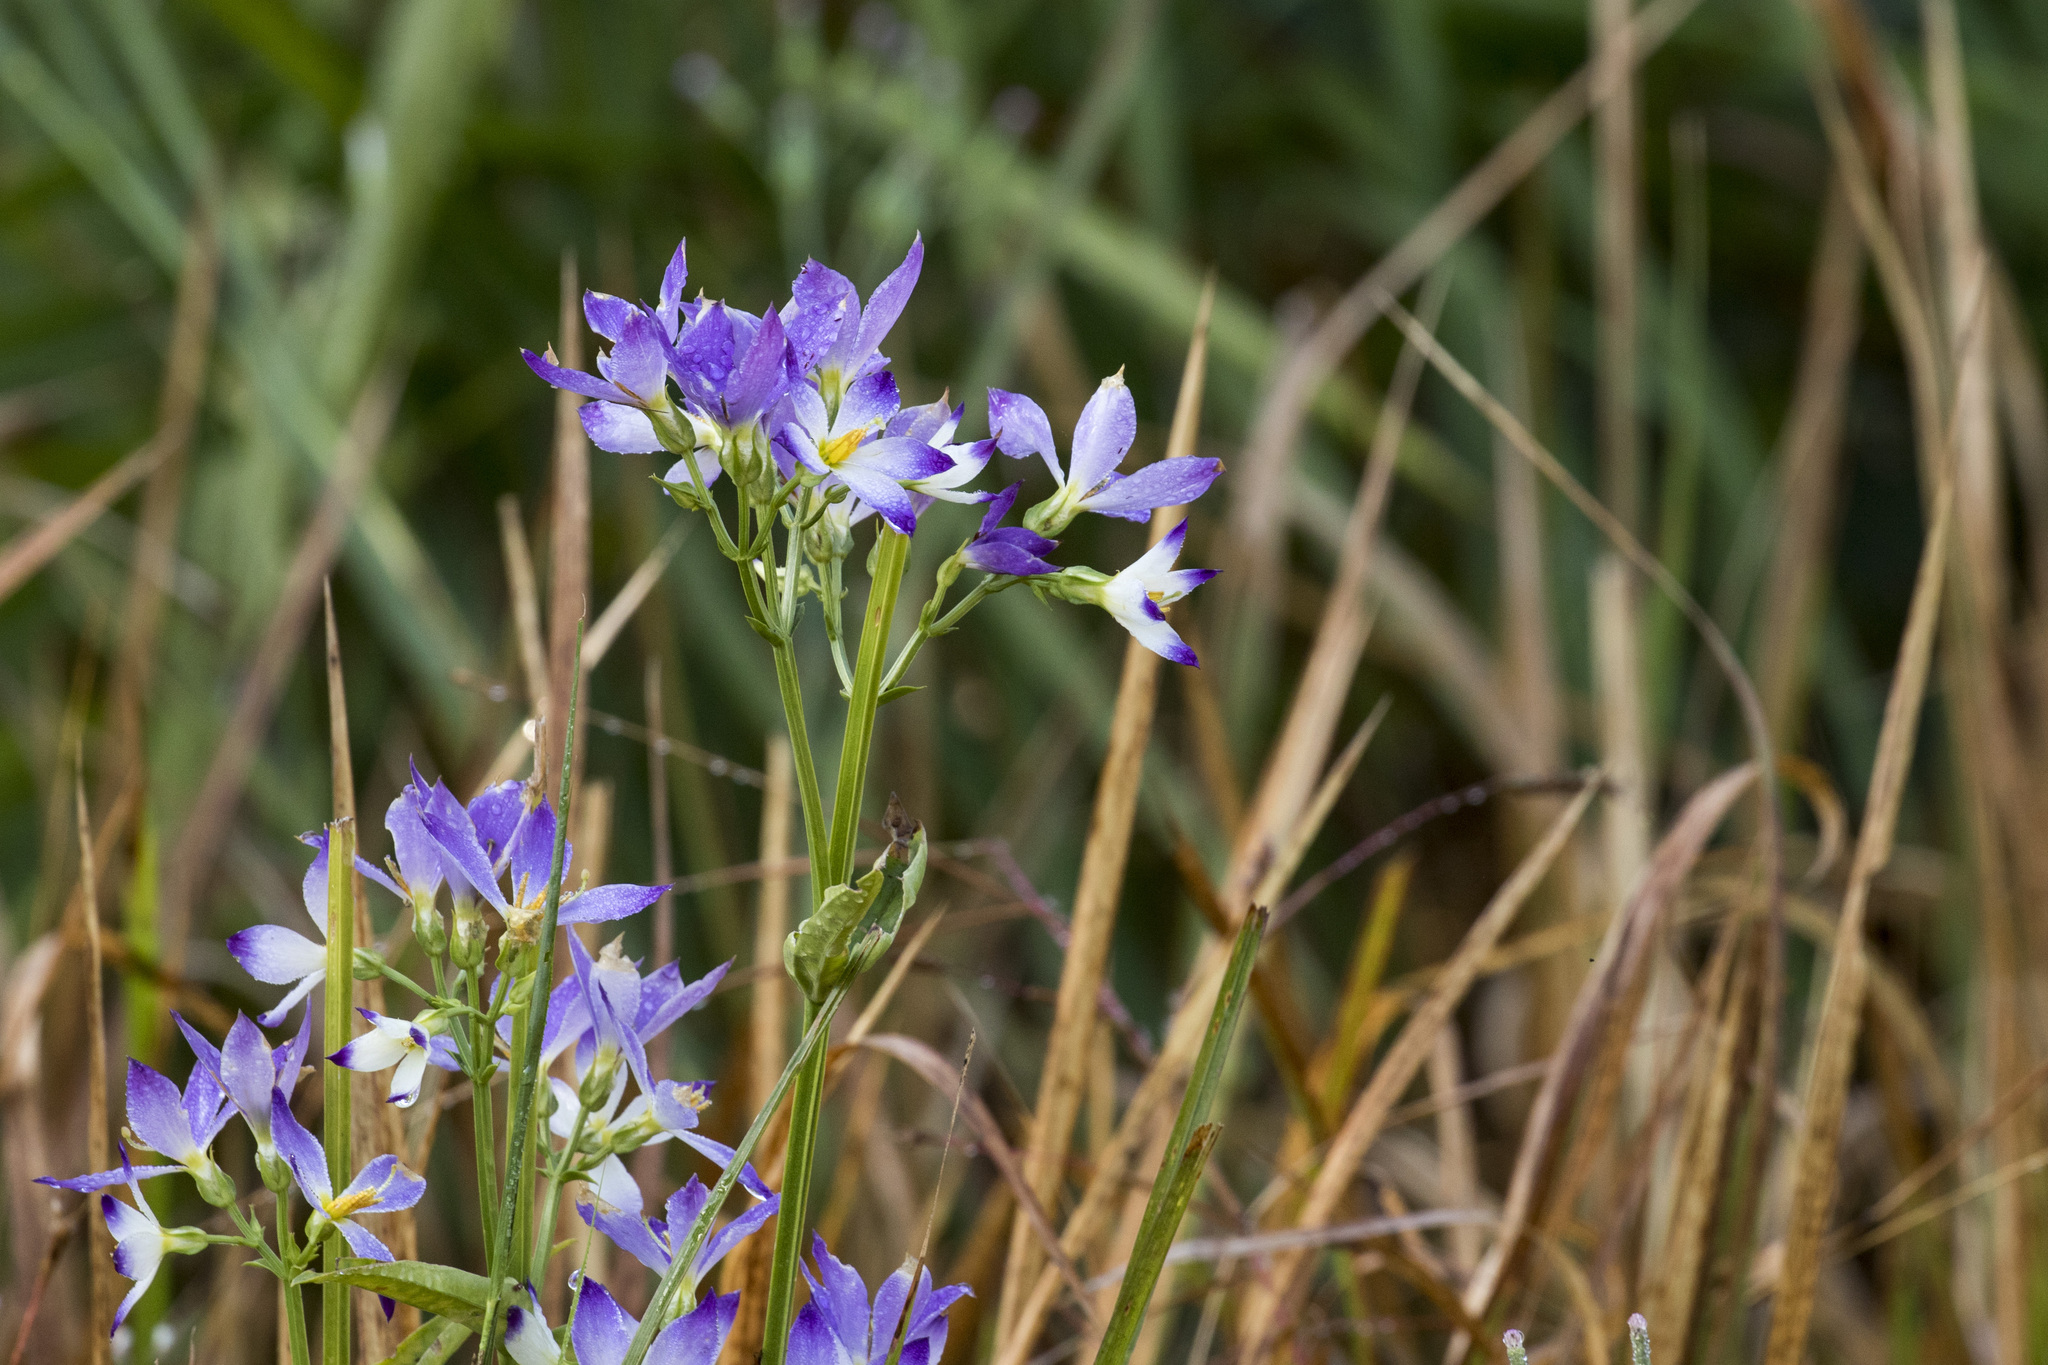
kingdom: Plantae
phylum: Tracheophyta
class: Magnoliopsida
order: Gentianales
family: Gentianaceae
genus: Exacum
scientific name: Exacum tetragonum
